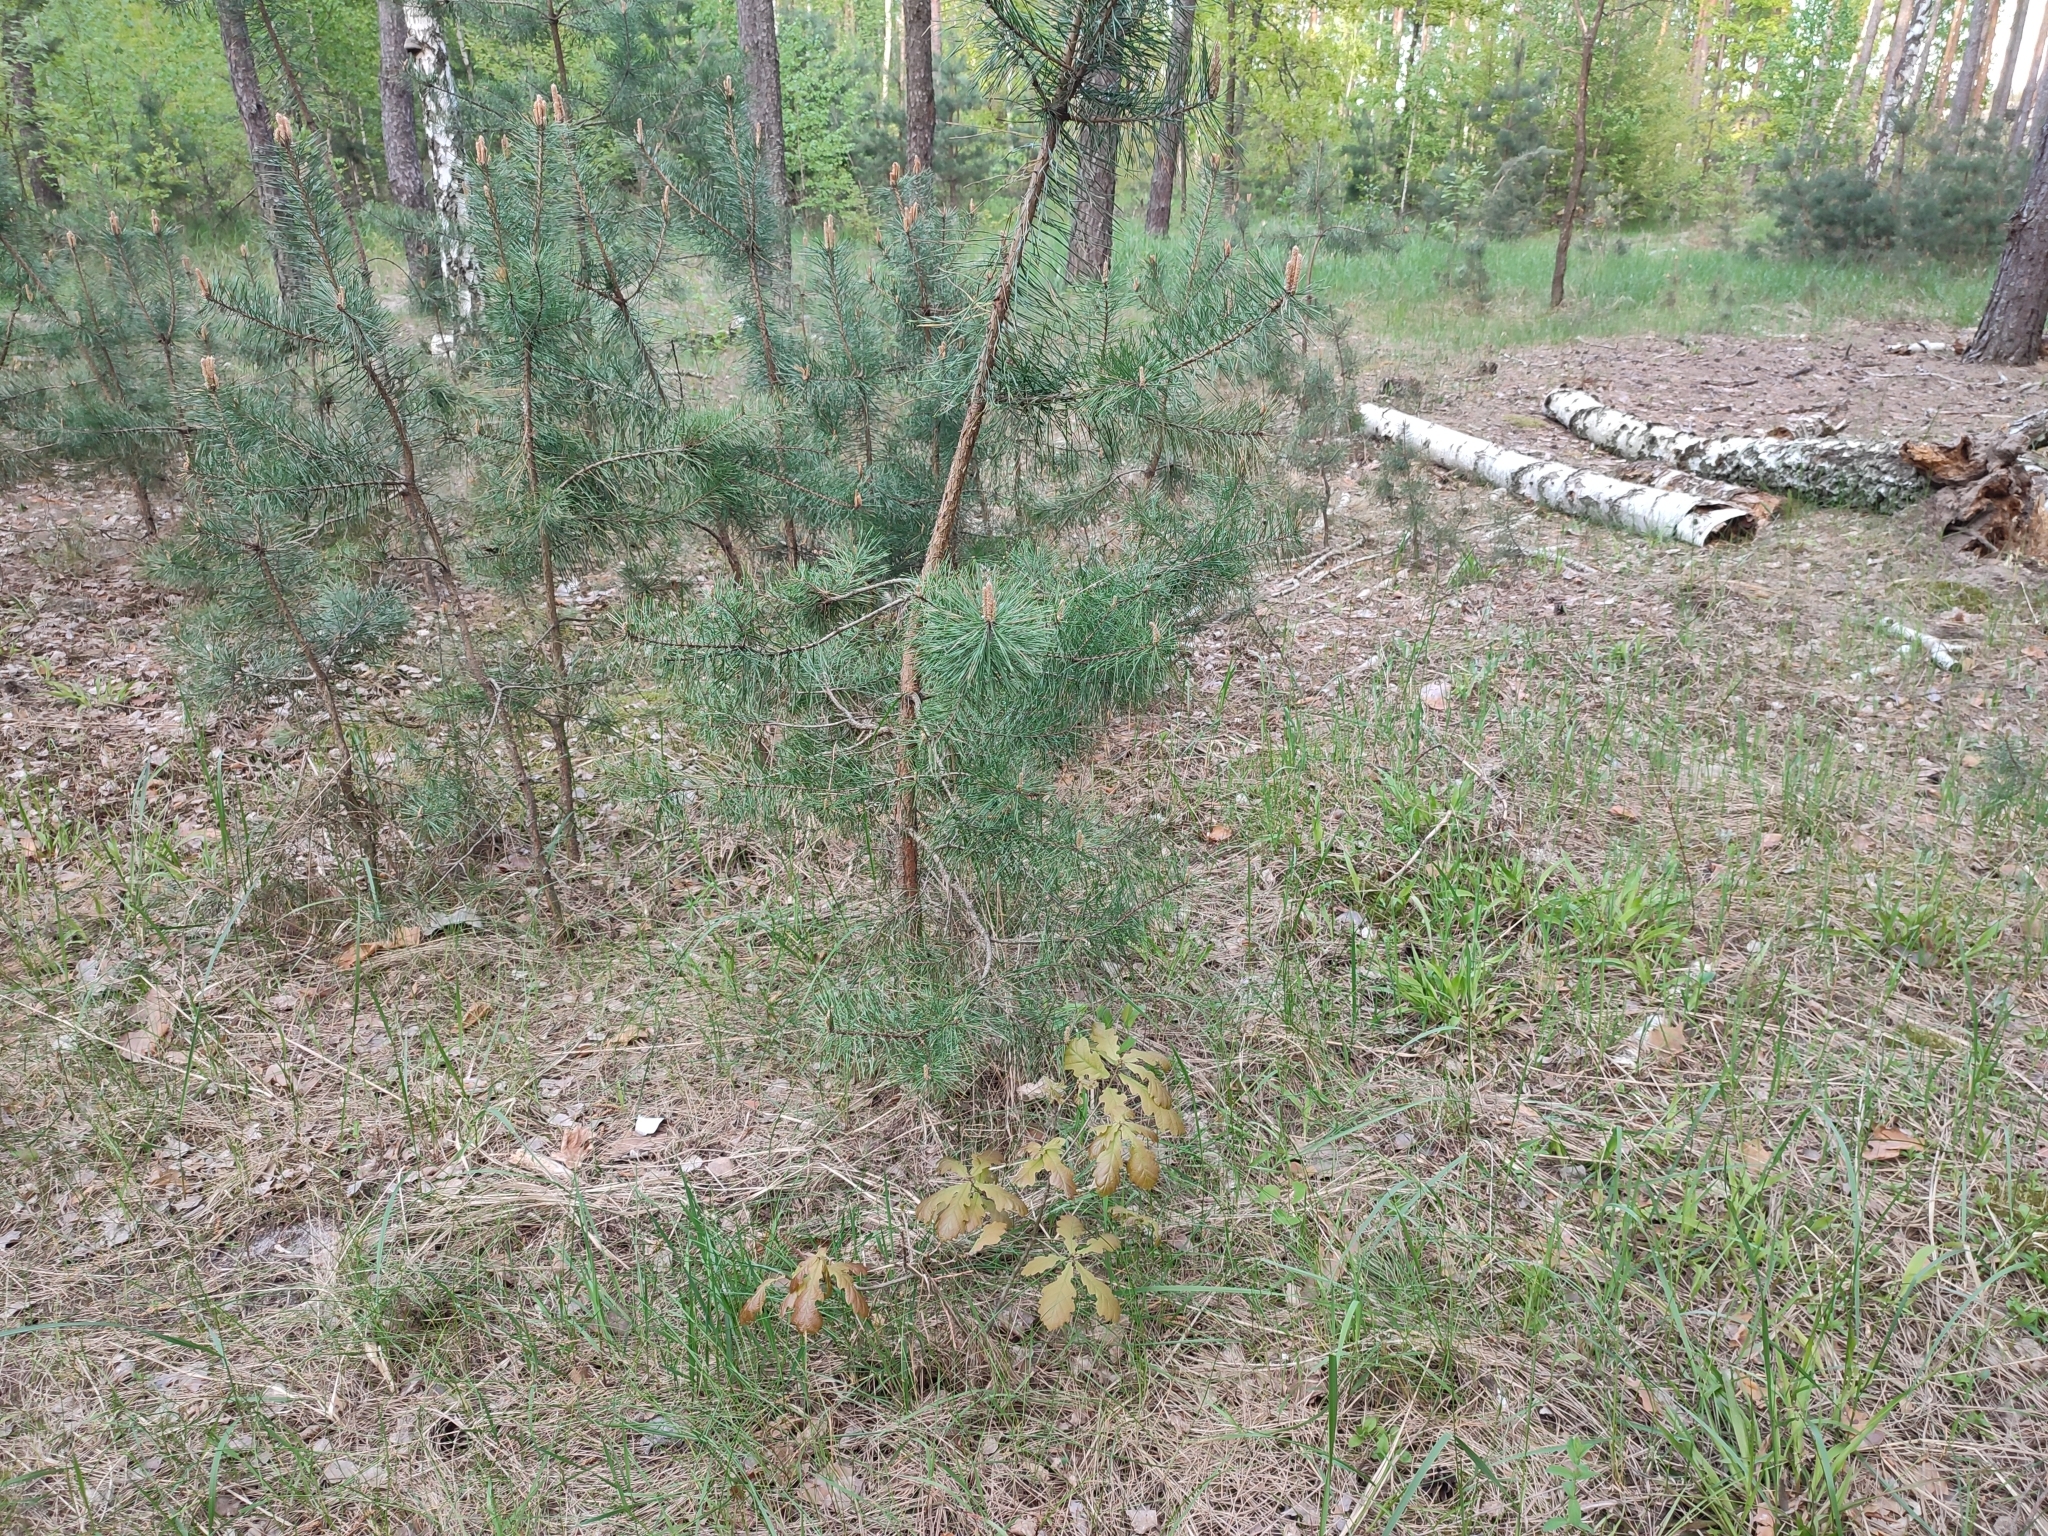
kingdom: Plantae
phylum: Tracheophyta
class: Magnoliopsida
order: Fagales
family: Fagaceae
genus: Quercus
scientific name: Quercus robur
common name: Pedunculate oak
